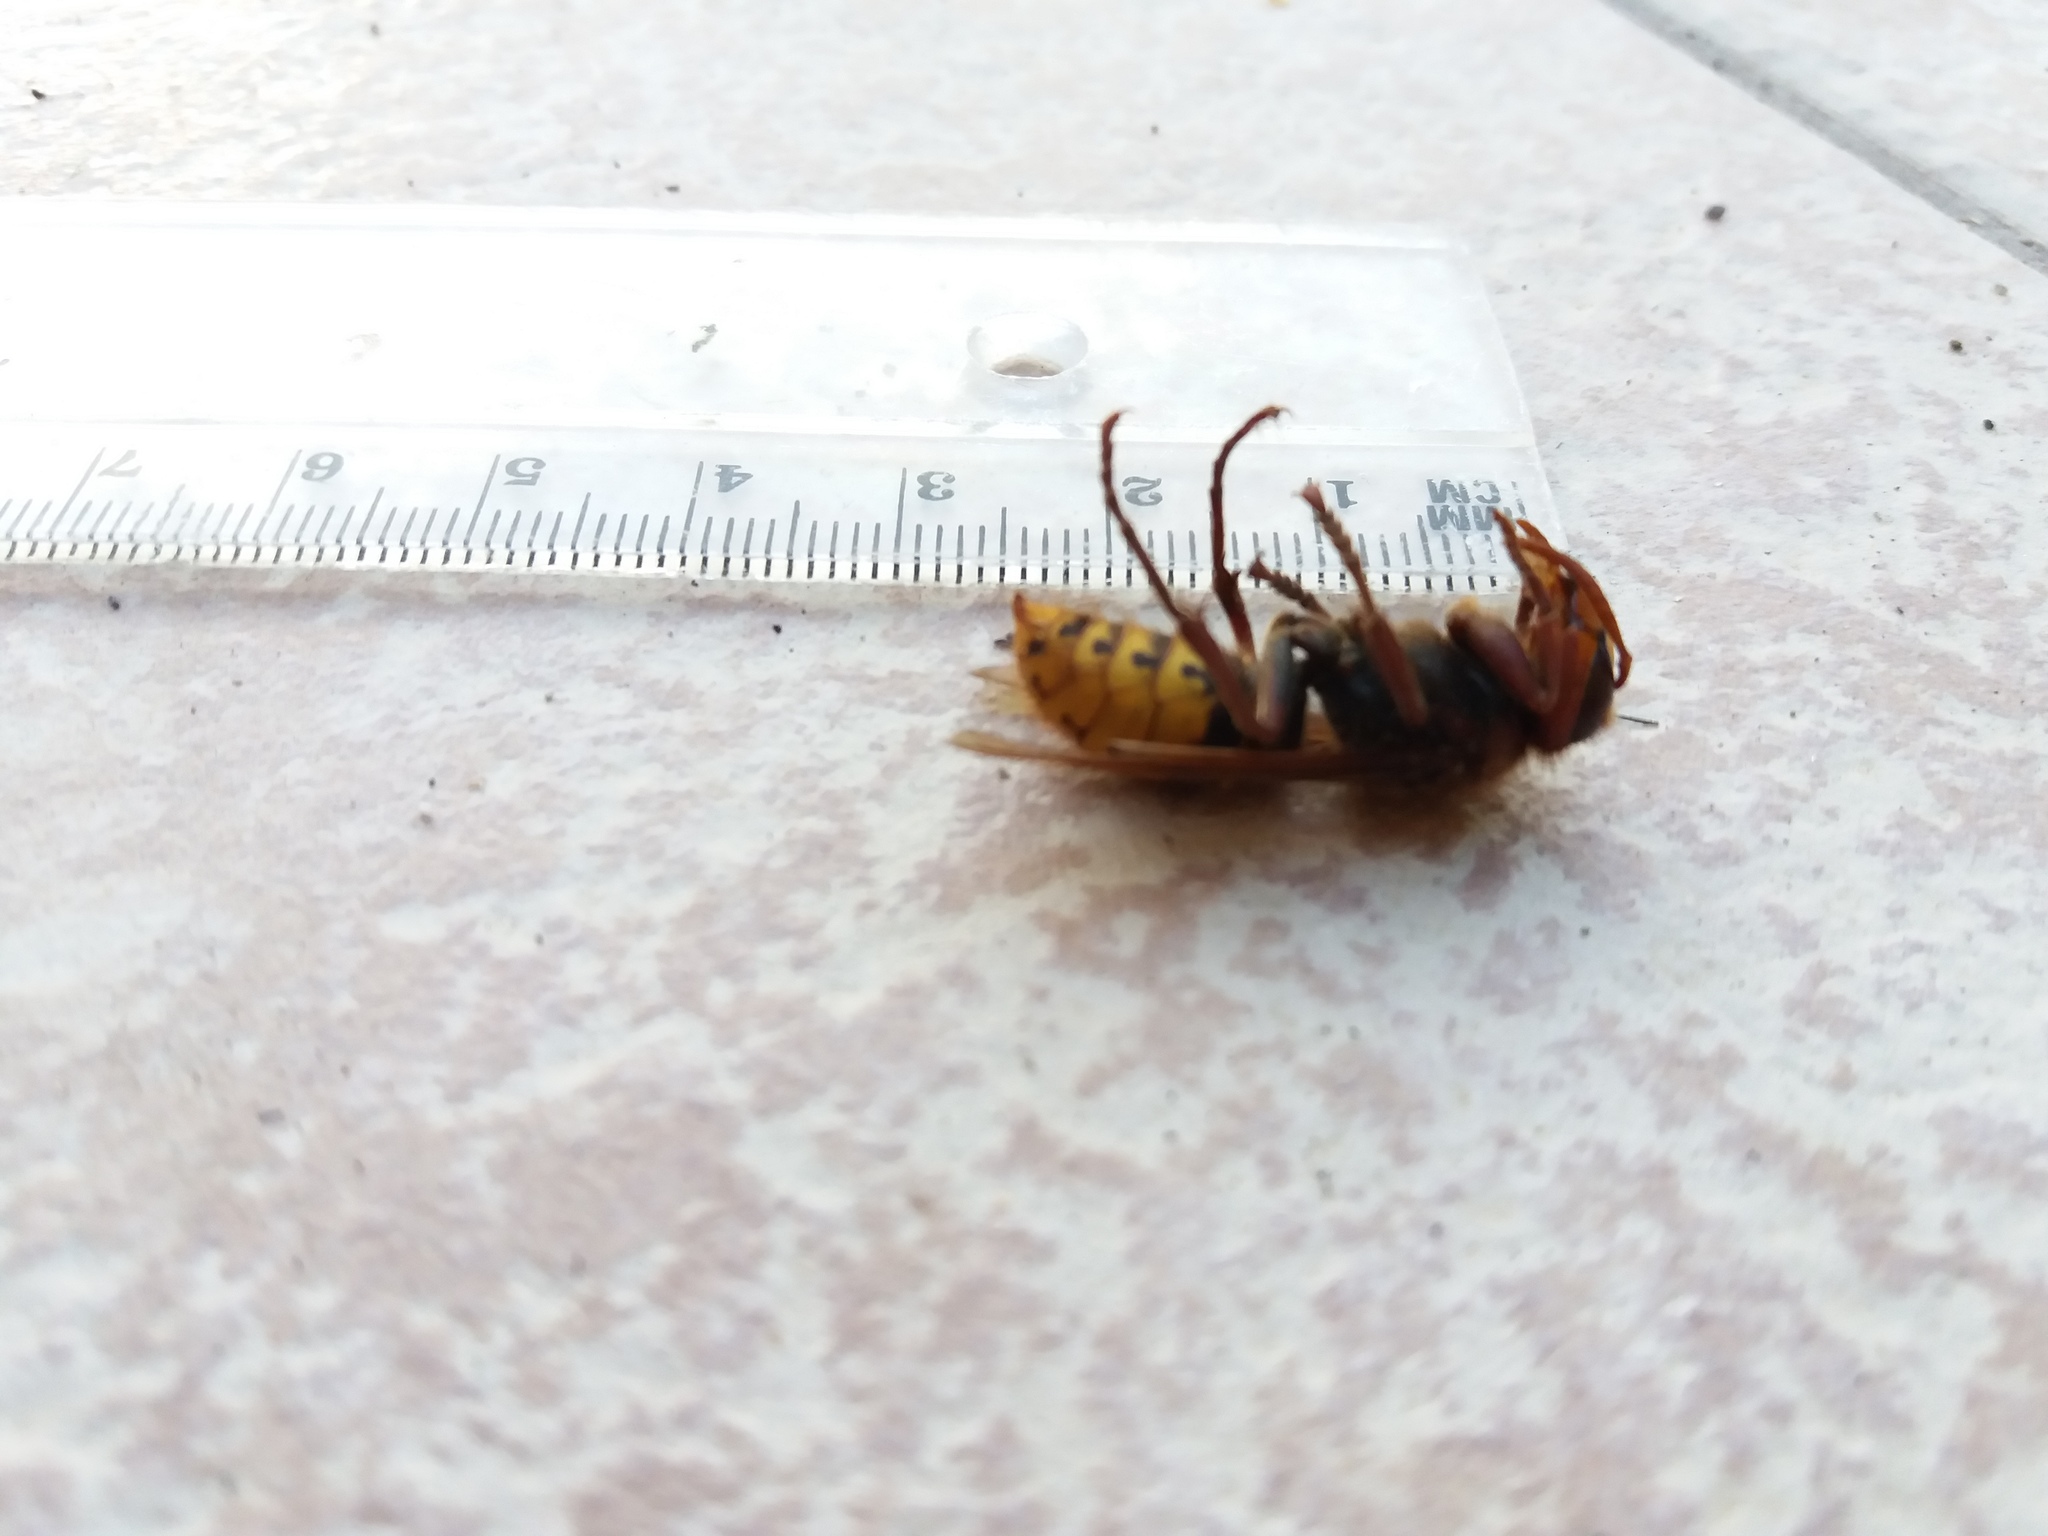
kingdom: Animalia
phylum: Arthropoda
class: Insecta
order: Hymenoptera
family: Vespidae
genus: Vespa
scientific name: Vespa crabro
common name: Hornet
